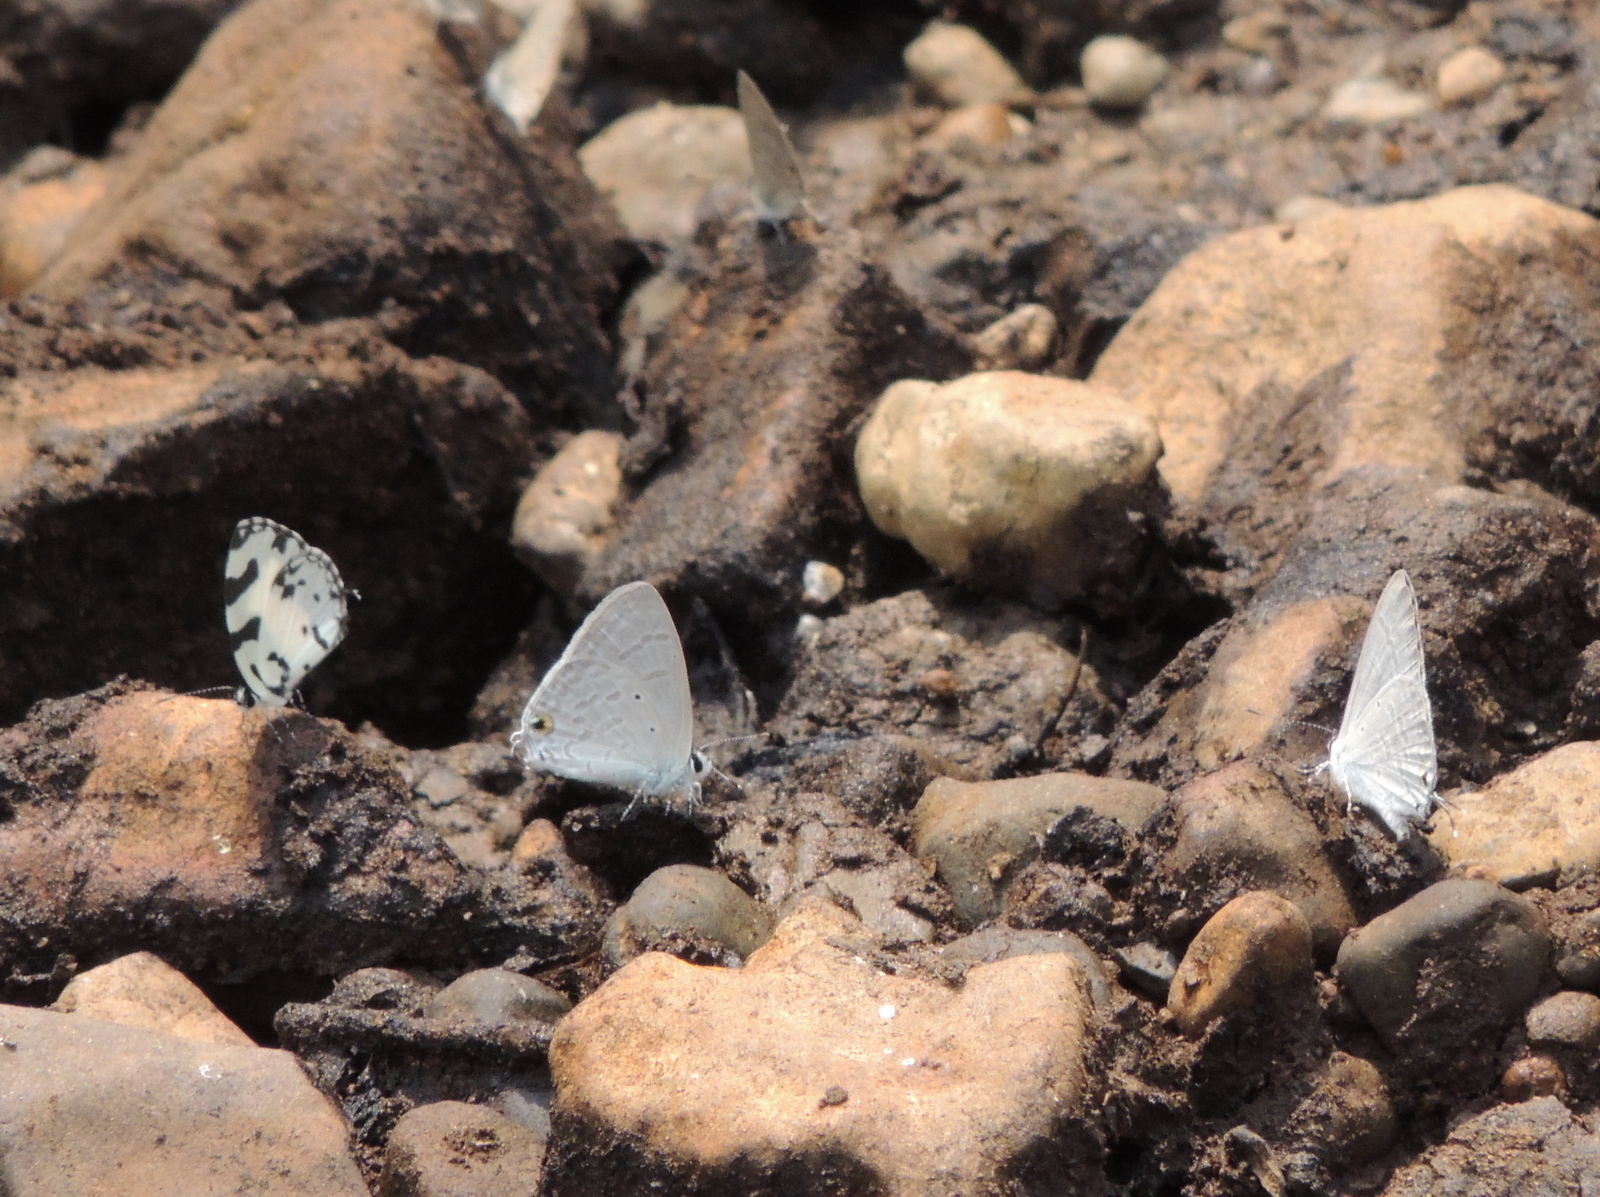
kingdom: Animalia
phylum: Arthropoda
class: Insecta
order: Lepidoptera
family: Lycaenidae
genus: Caleta
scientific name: Caleta decidia
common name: Angled pierrot
